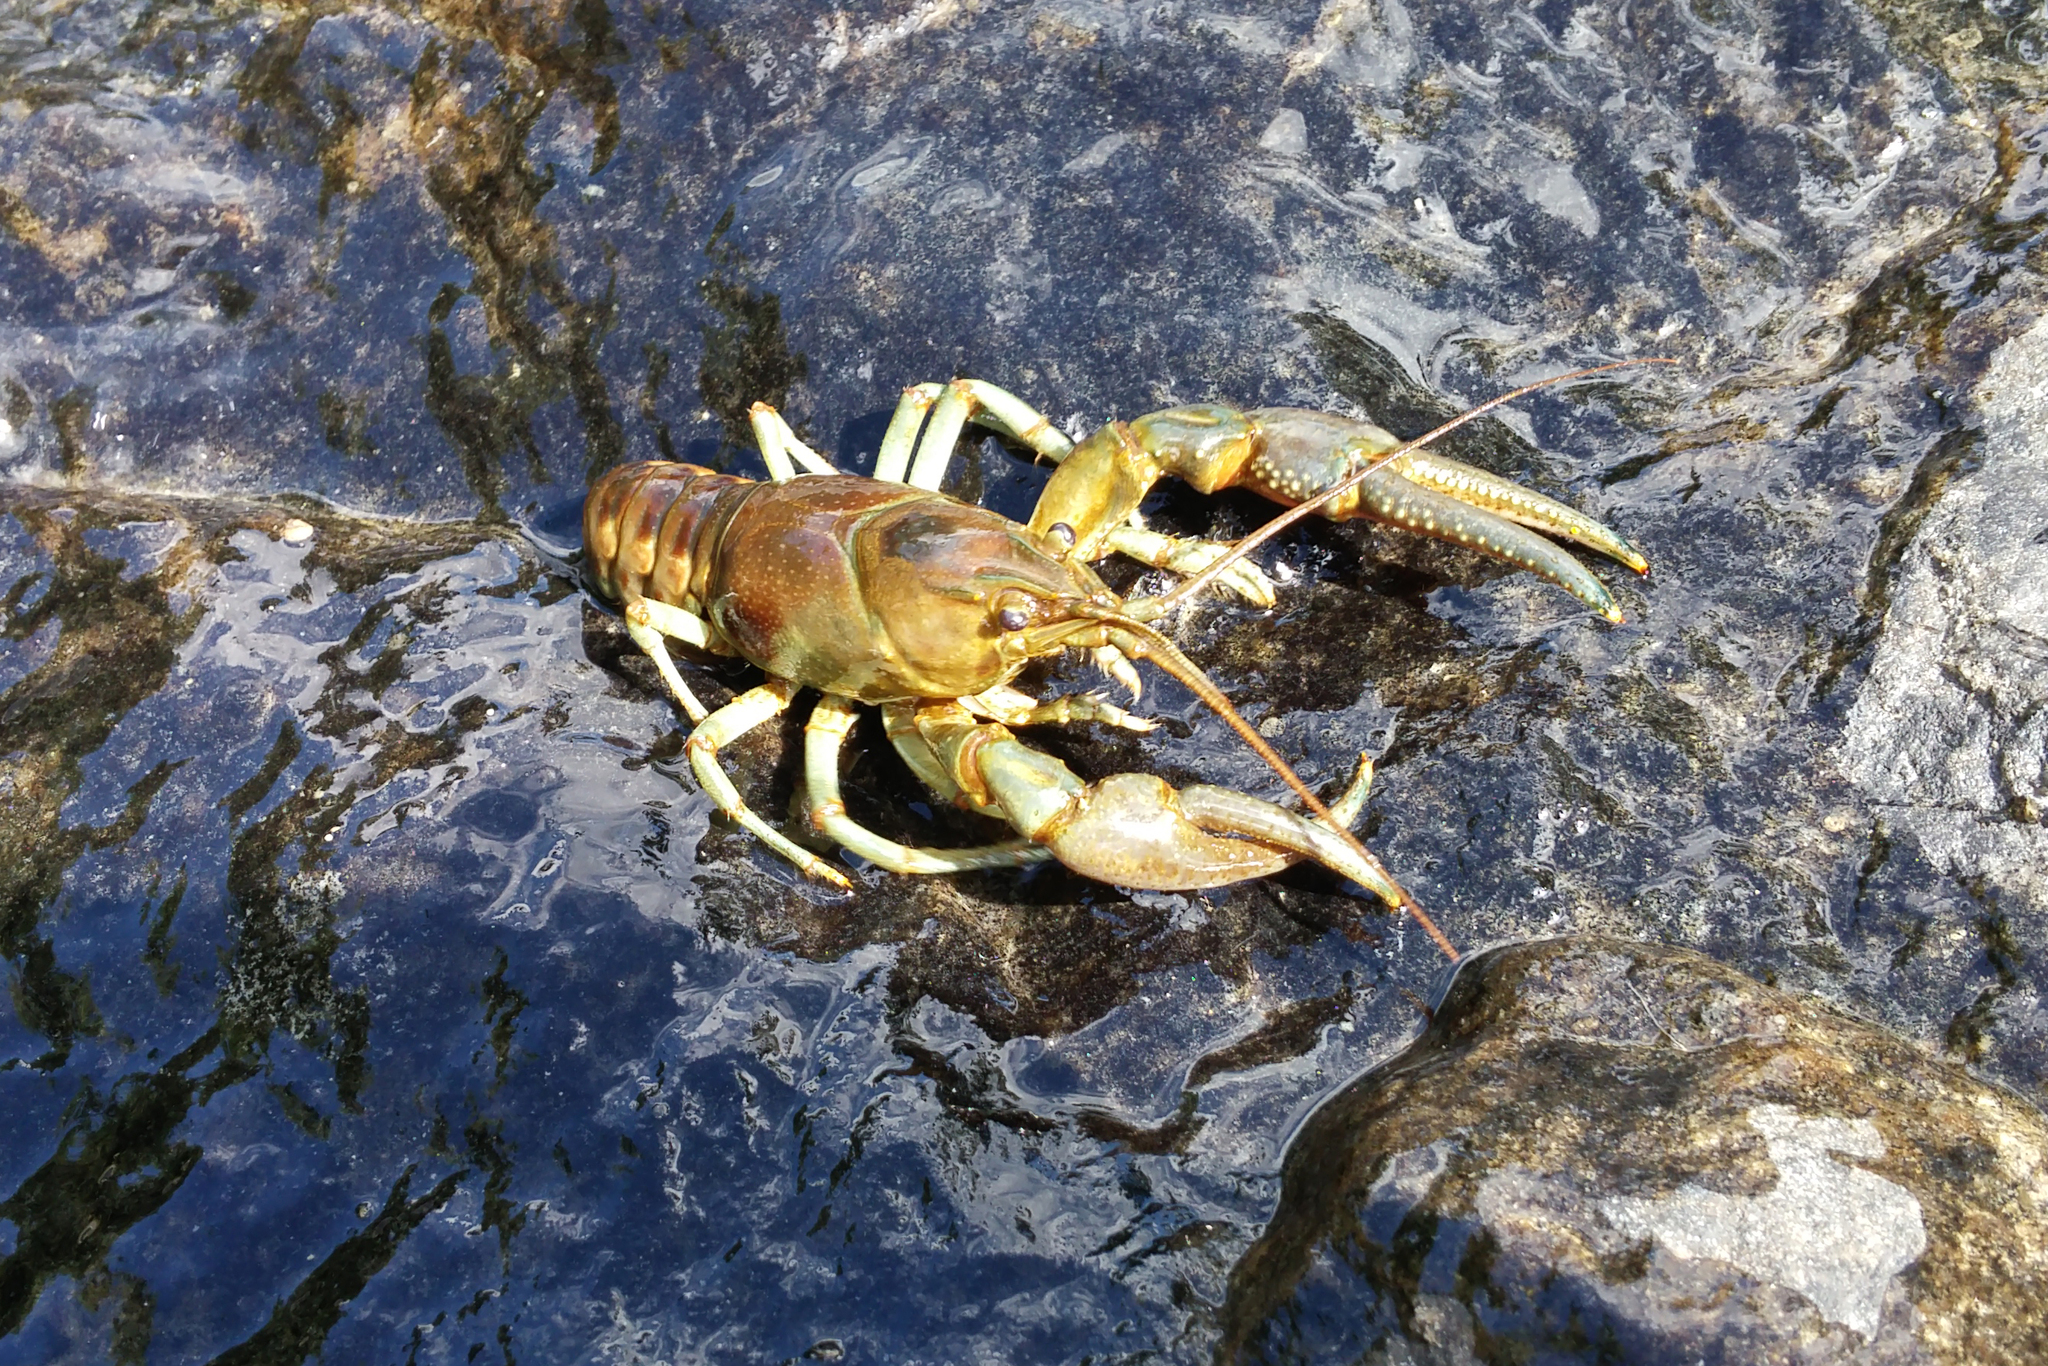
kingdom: Animalia
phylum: Arthropoda
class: Malacostraca
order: Decapoda
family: Cambaridae
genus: Faxonius
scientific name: Faxonius rusticus
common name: Rusty crayfish
